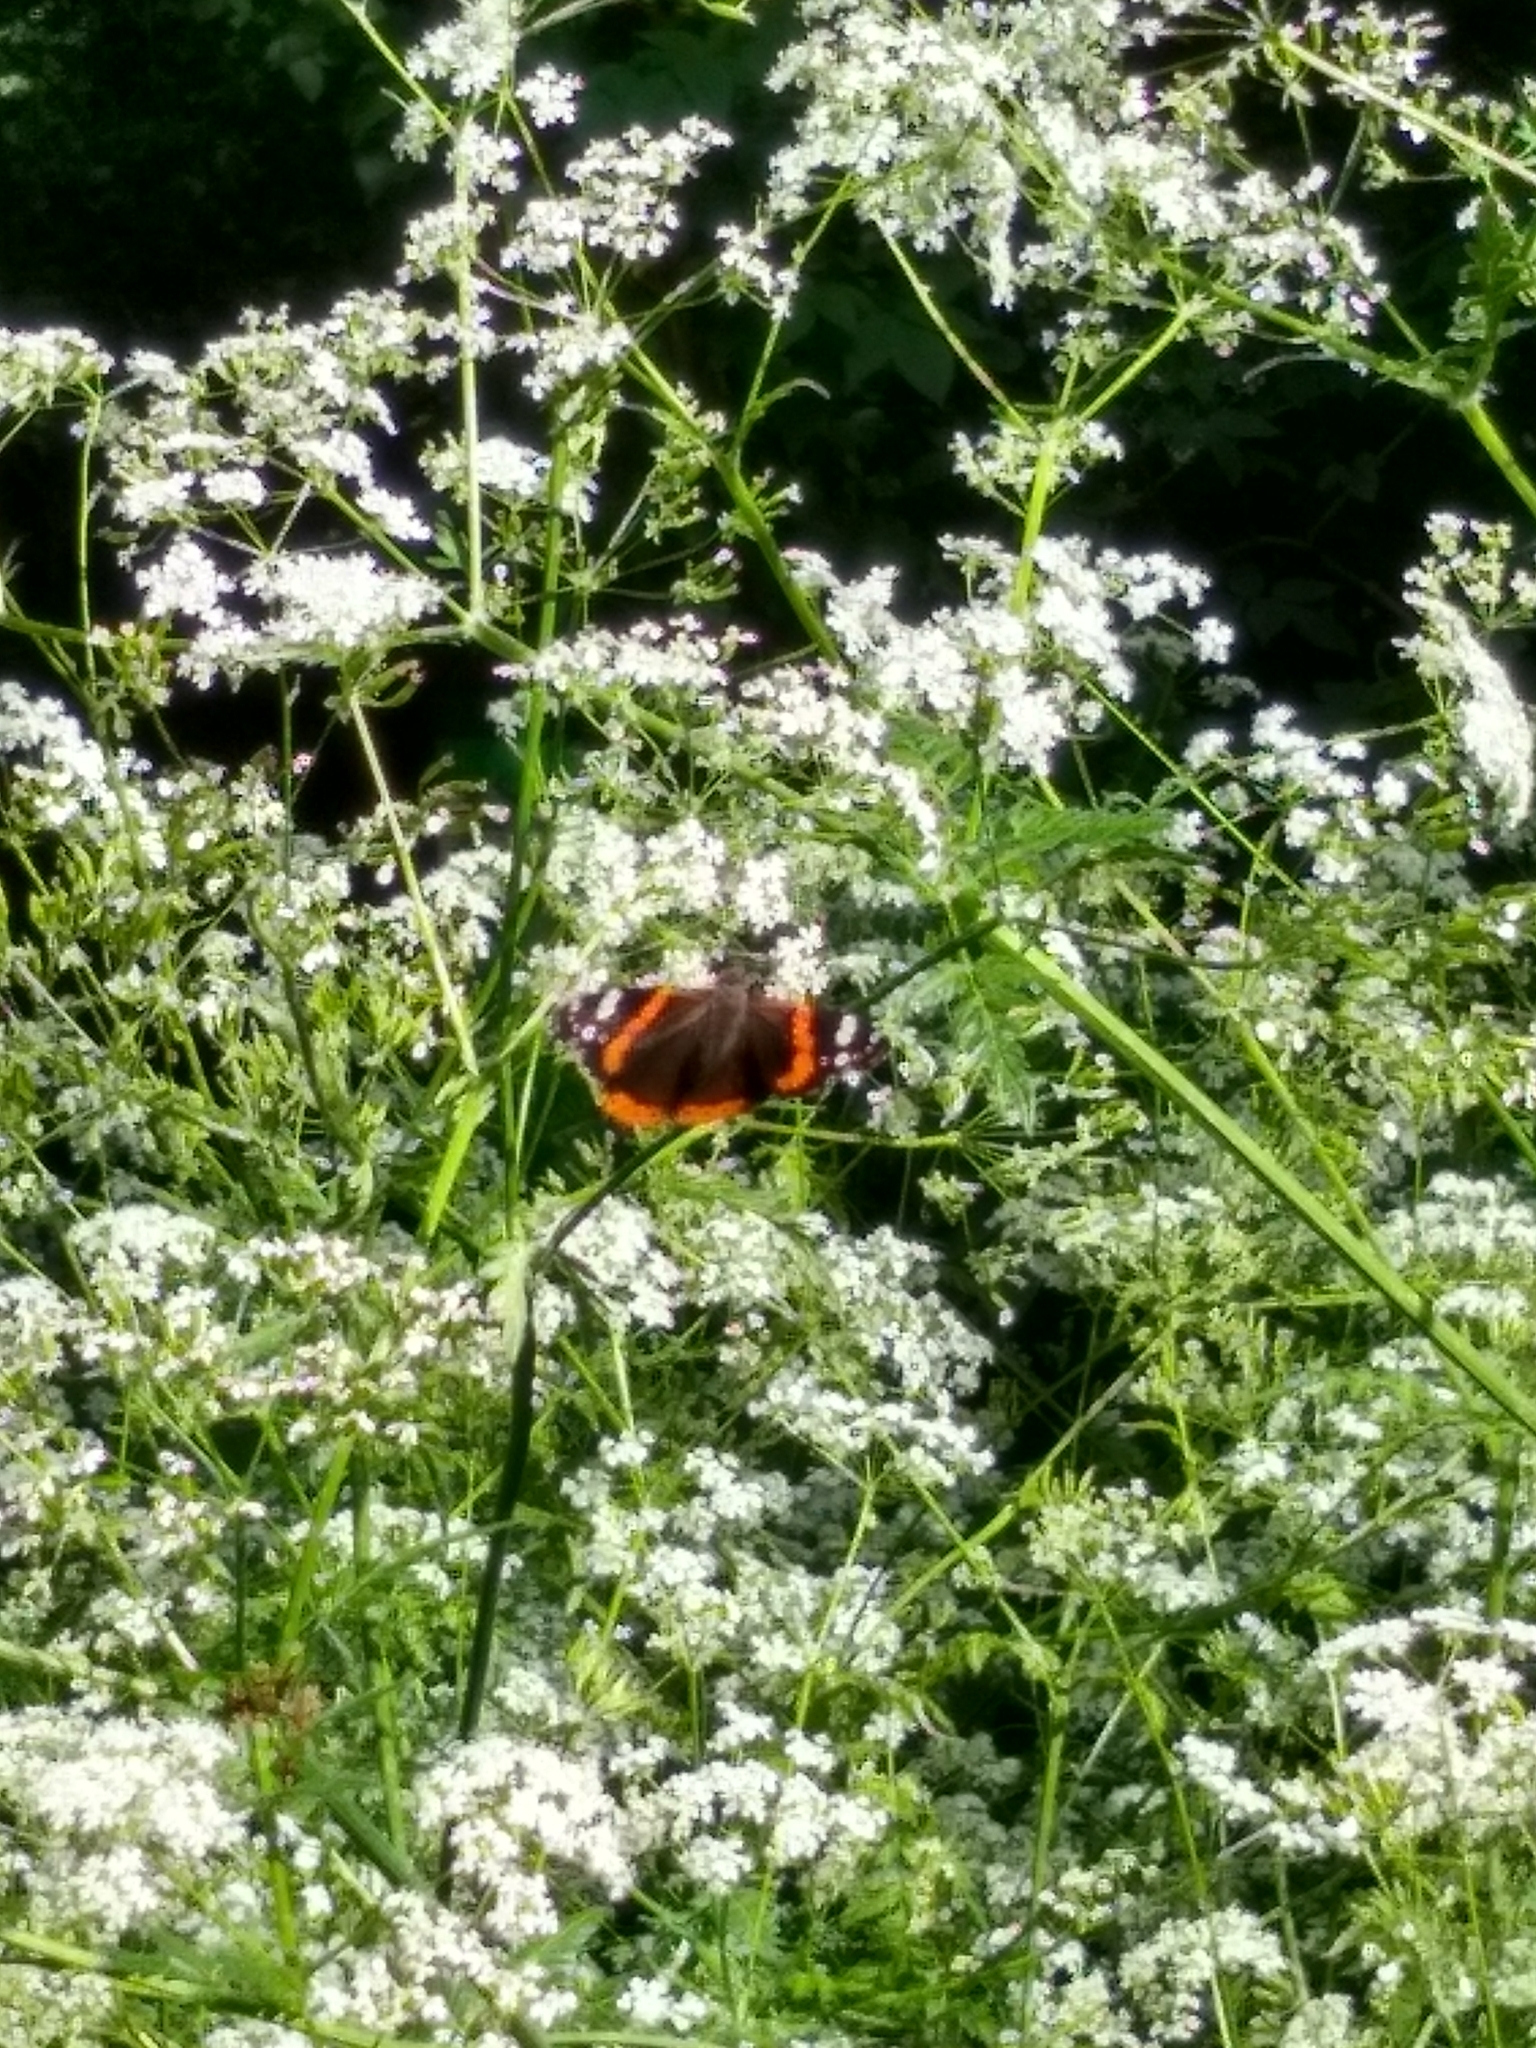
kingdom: Animalia
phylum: Arthropoda
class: Insecta
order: Lepidoptera
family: Nymphalidae
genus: Vanessa
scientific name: Vanessa atalanta
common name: Red admiral
